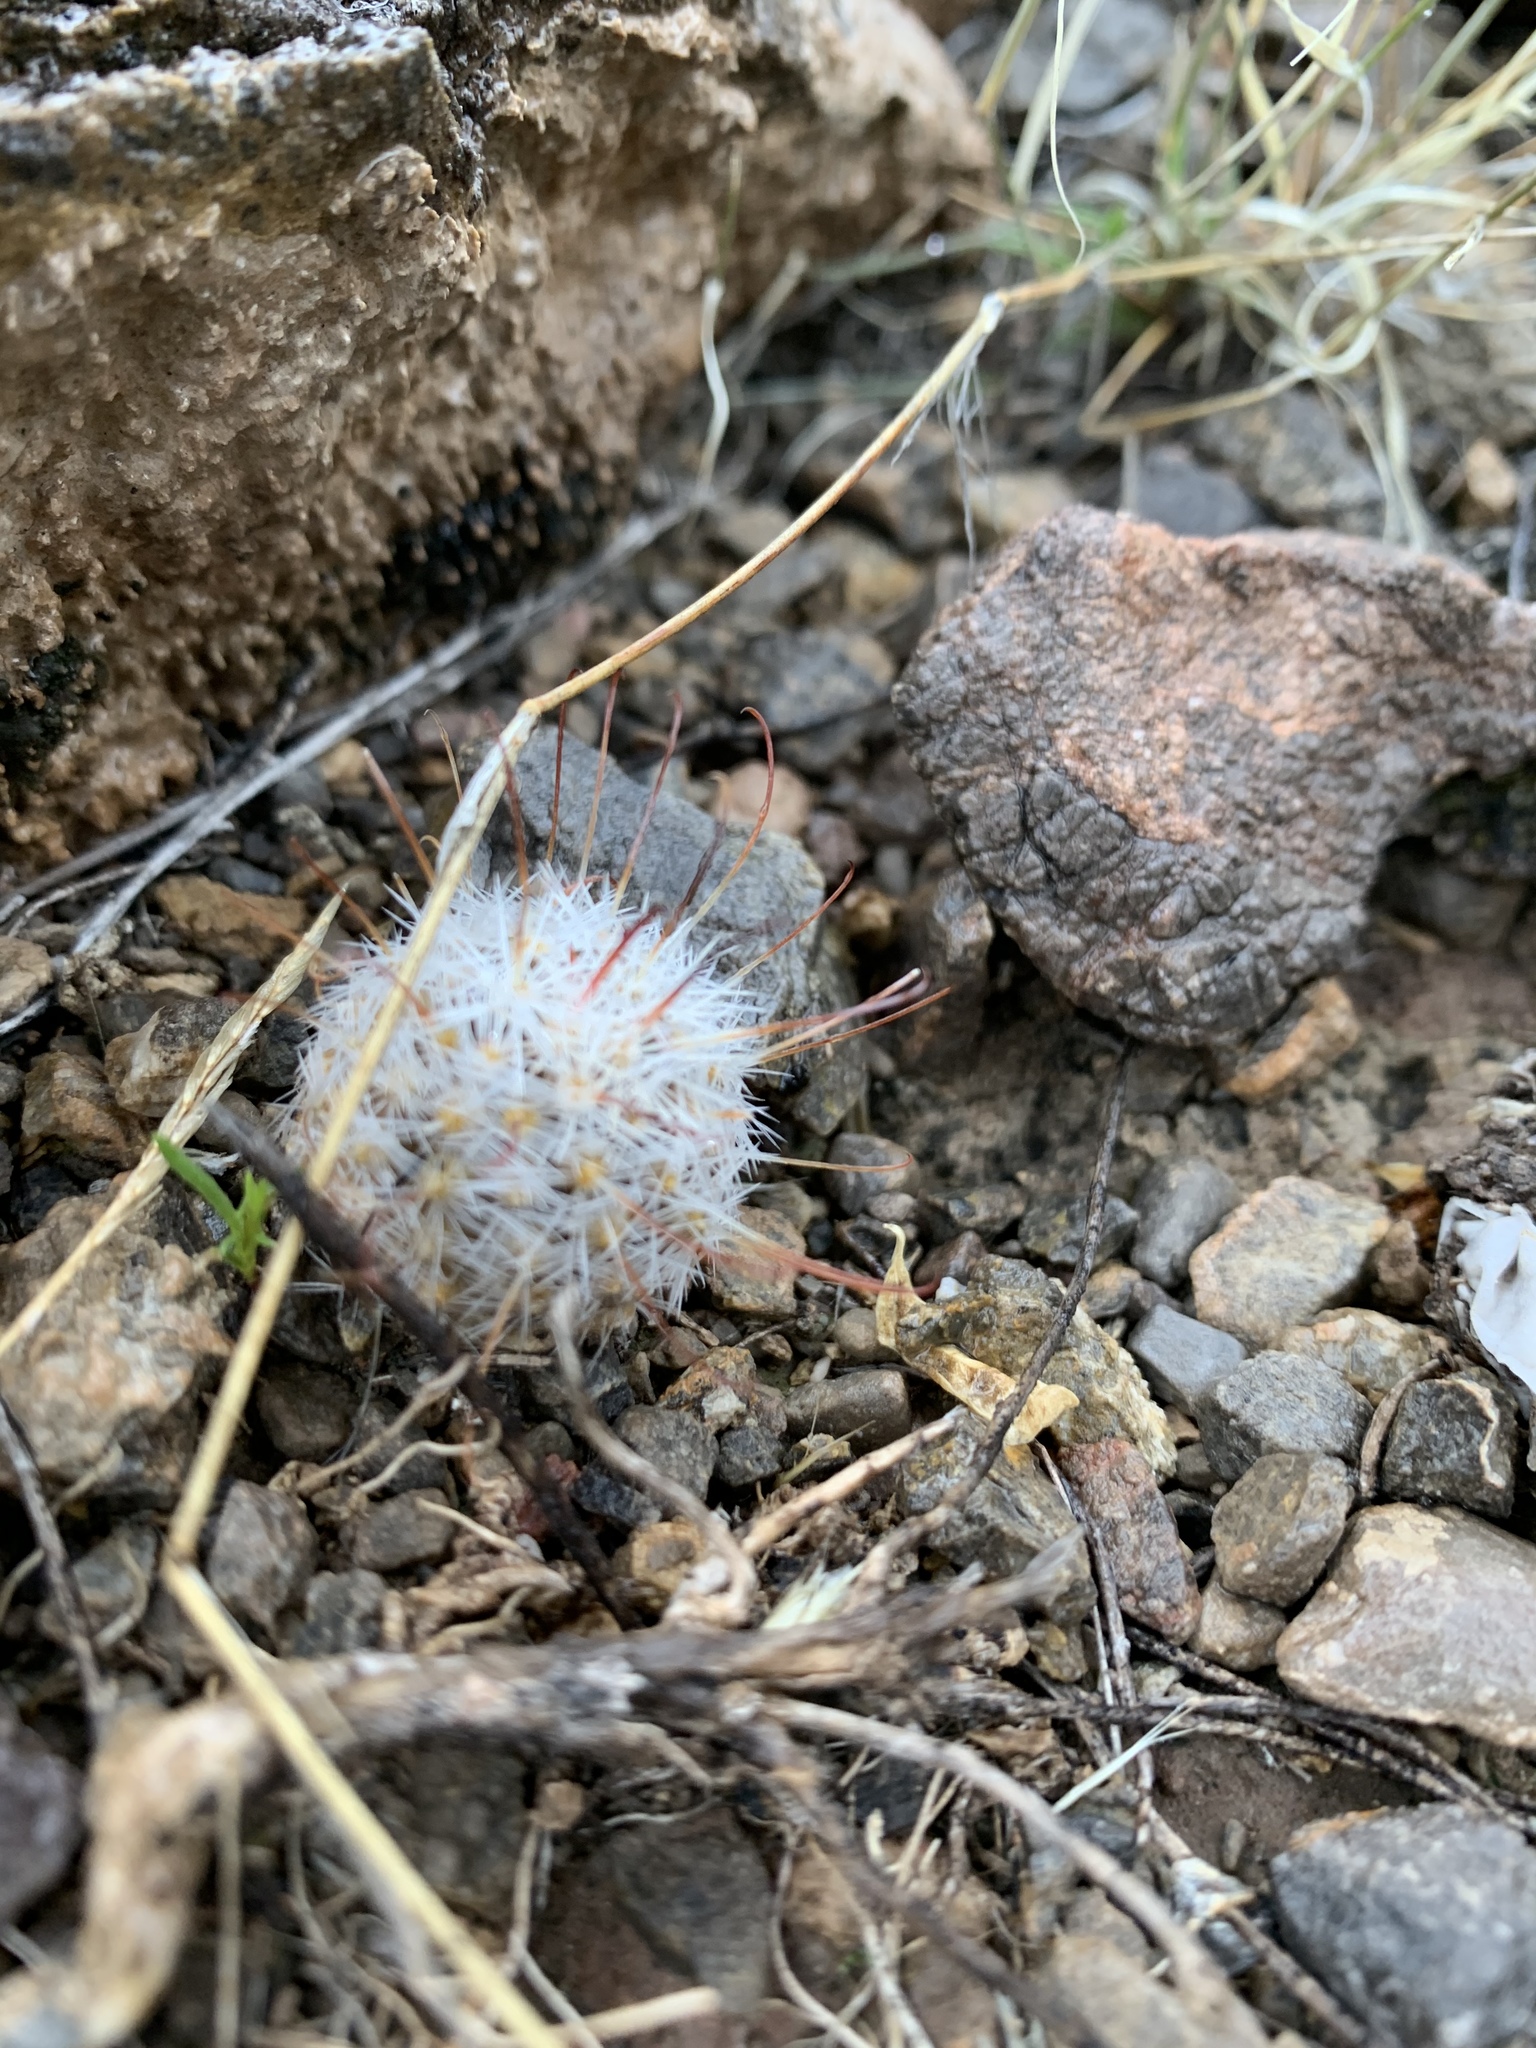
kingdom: Plantae
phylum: Tracheophyta
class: Magnoliopsida
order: Caryophyllales
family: Cactaceae
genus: Cochemiea
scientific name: Cochemiea grahamii
